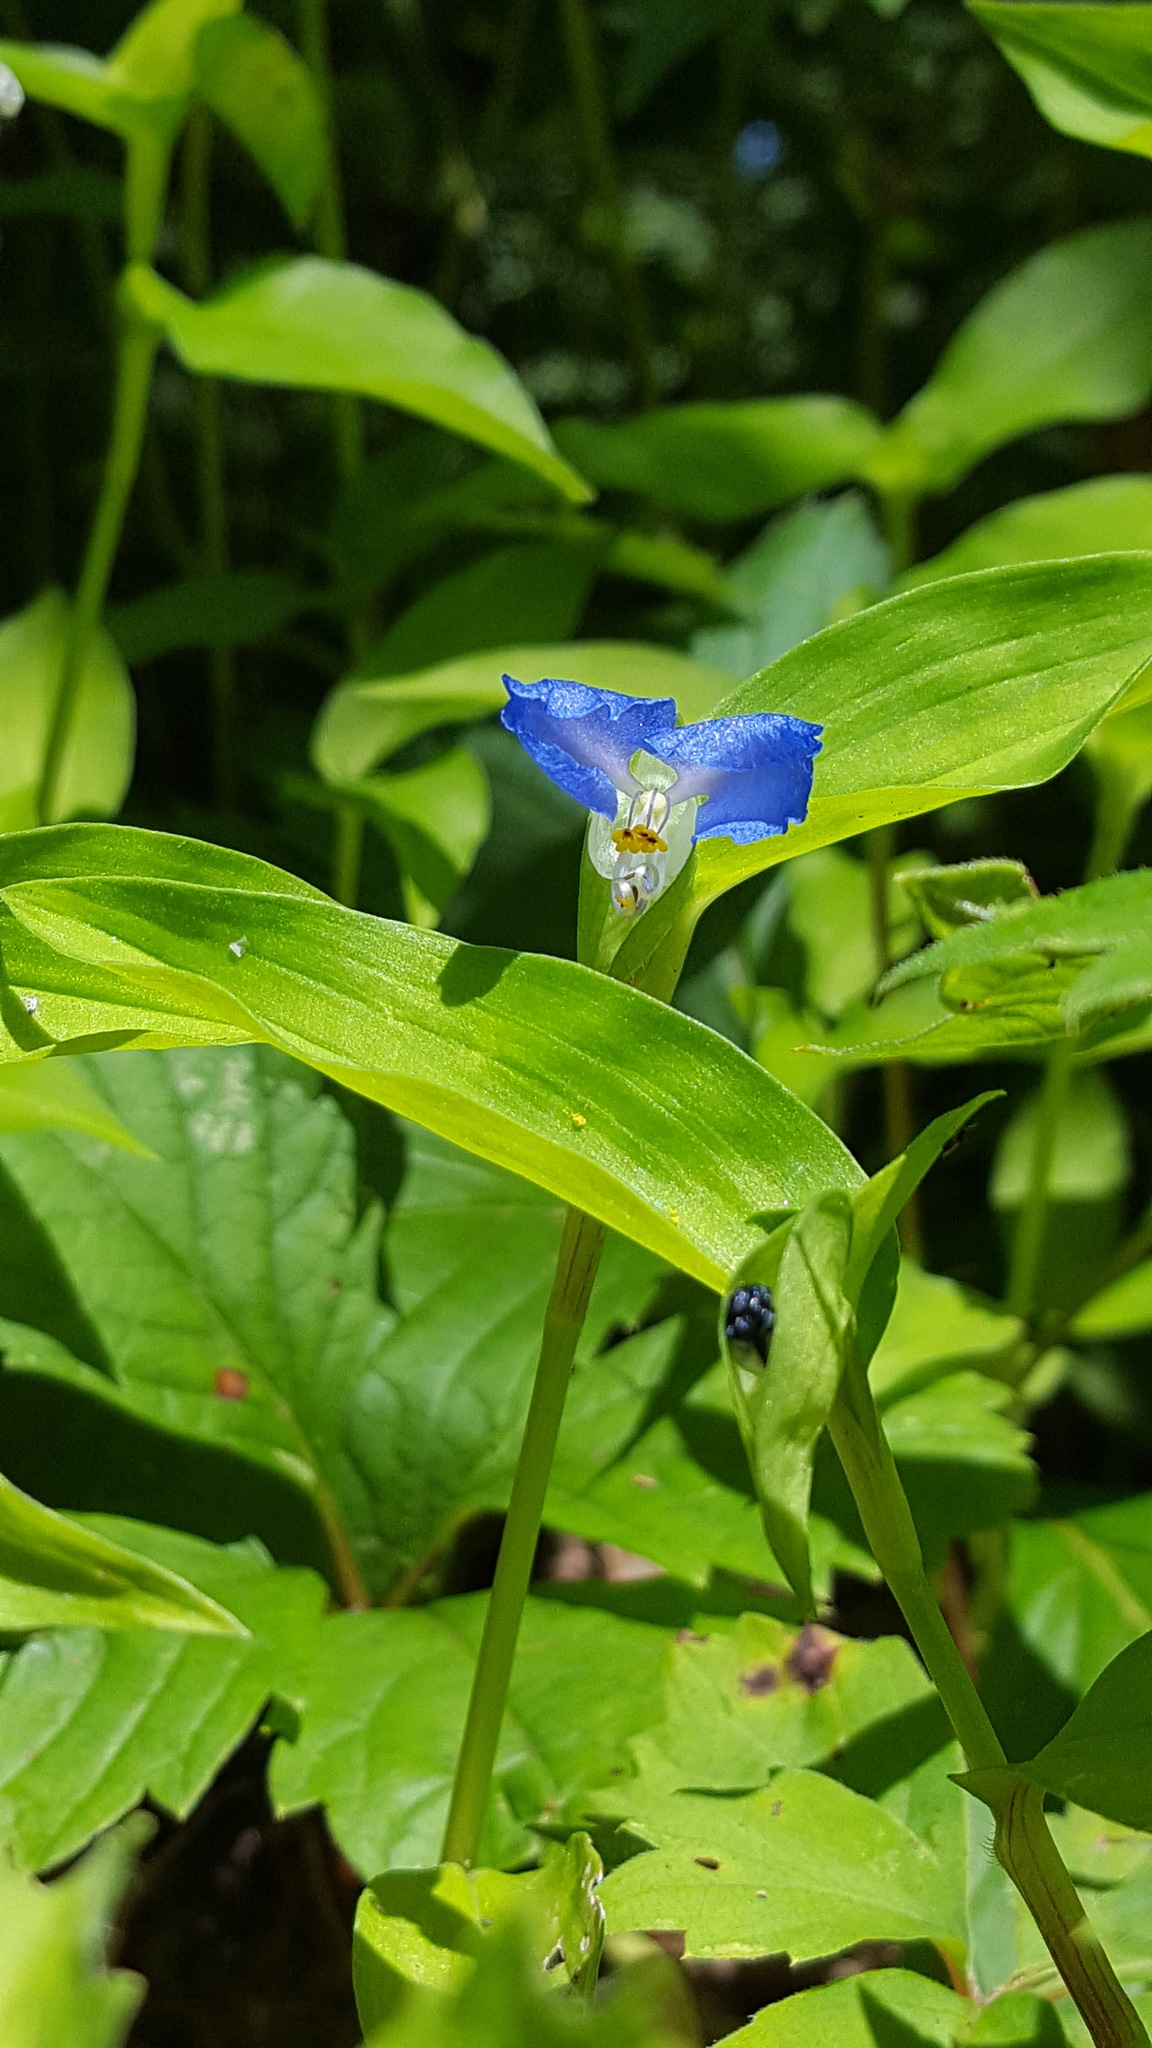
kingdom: Plantae
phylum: Tracheophyta
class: Liliopsida
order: Commelinales
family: Commelinaceae
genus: Commelina
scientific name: Commelina communis
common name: Asiatic dayflower
